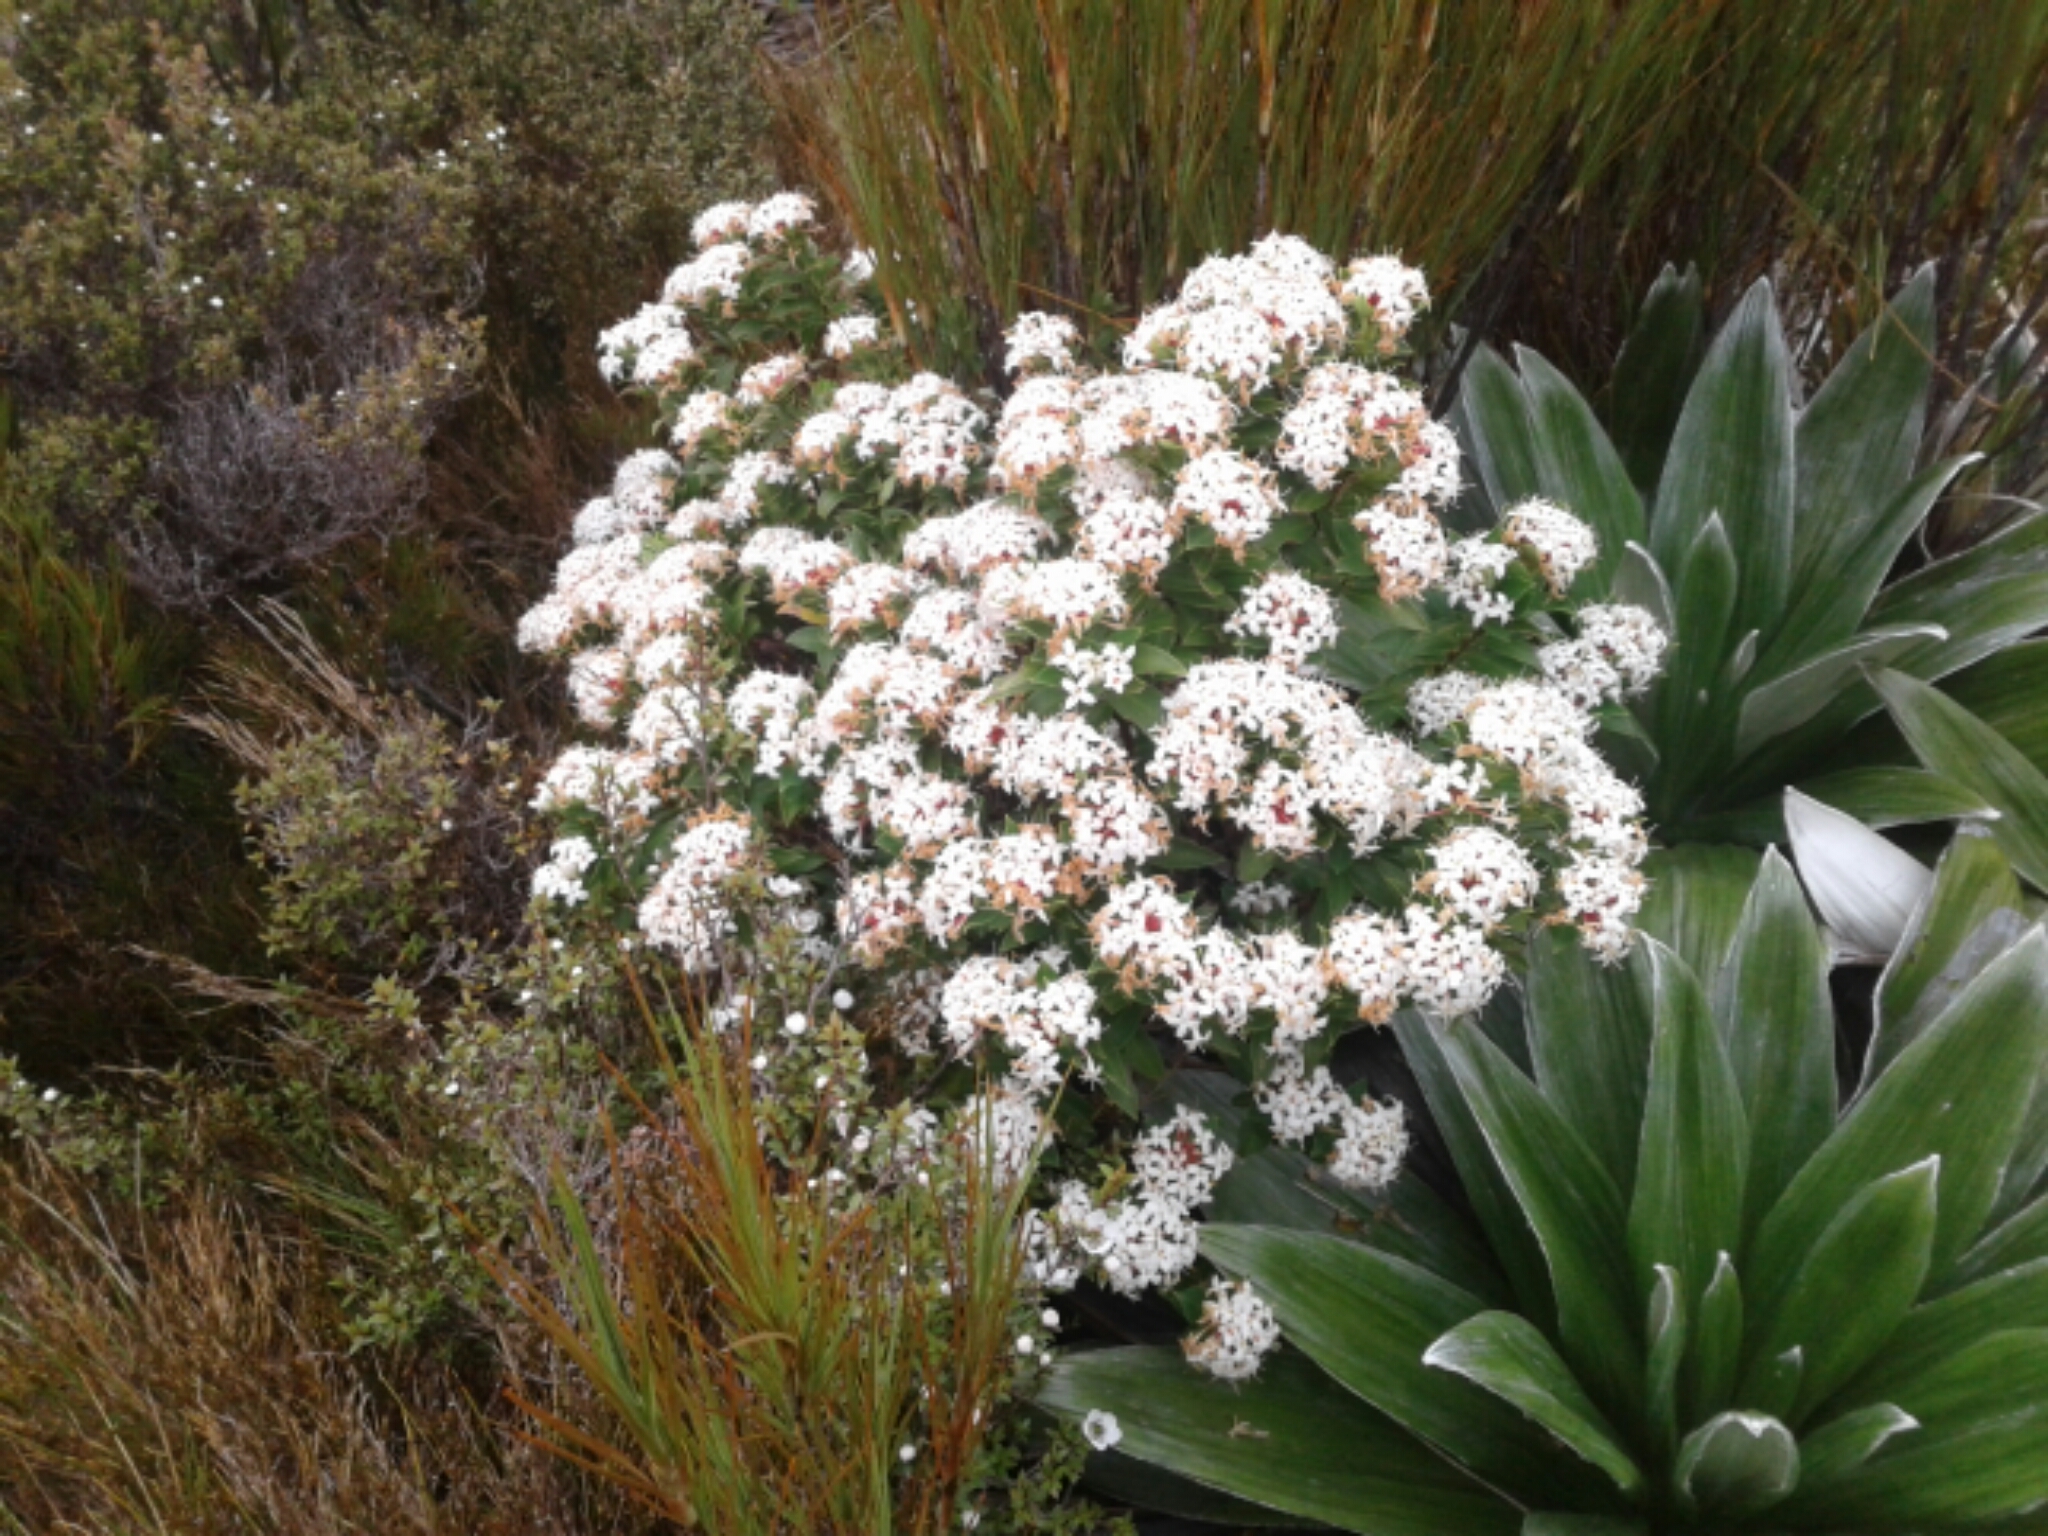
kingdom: Plantae
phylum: Tracheophyta
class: Magnoliopsida
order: Malvales
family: Thymelaeaceae
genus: Pimelea
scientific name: Pimelea
